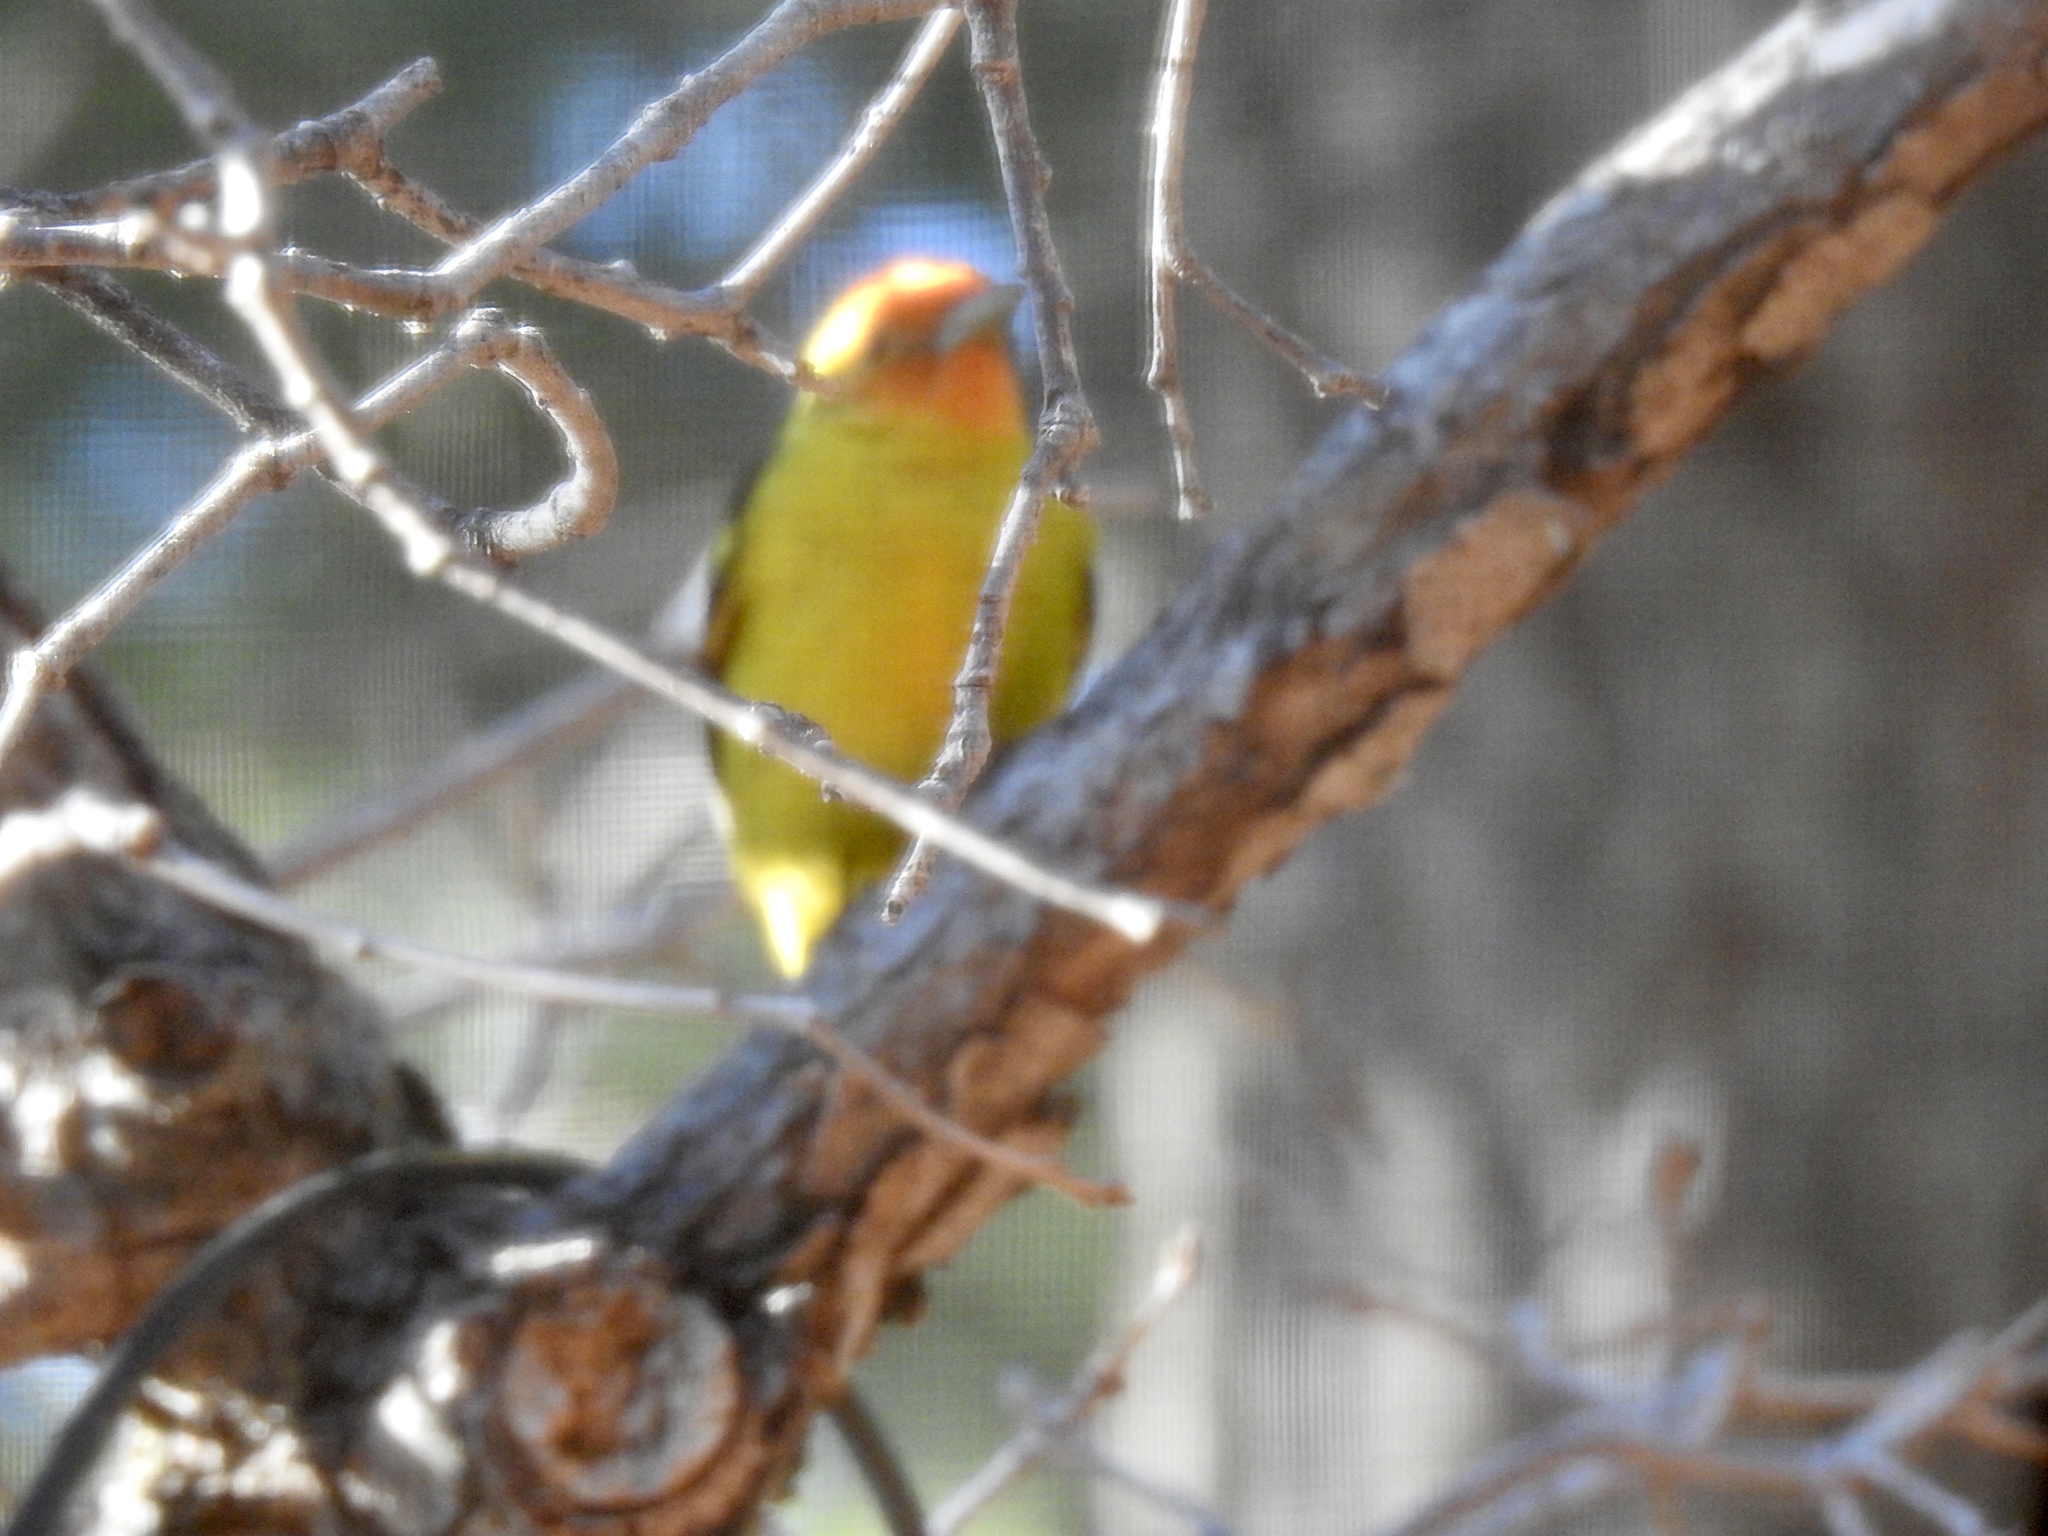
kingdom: Animalia
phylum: Chordata
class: Aves
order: Passeriformes
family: Cardinalidae
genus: Piranga
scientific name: Piranga ludoviciana
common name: Western tanager
